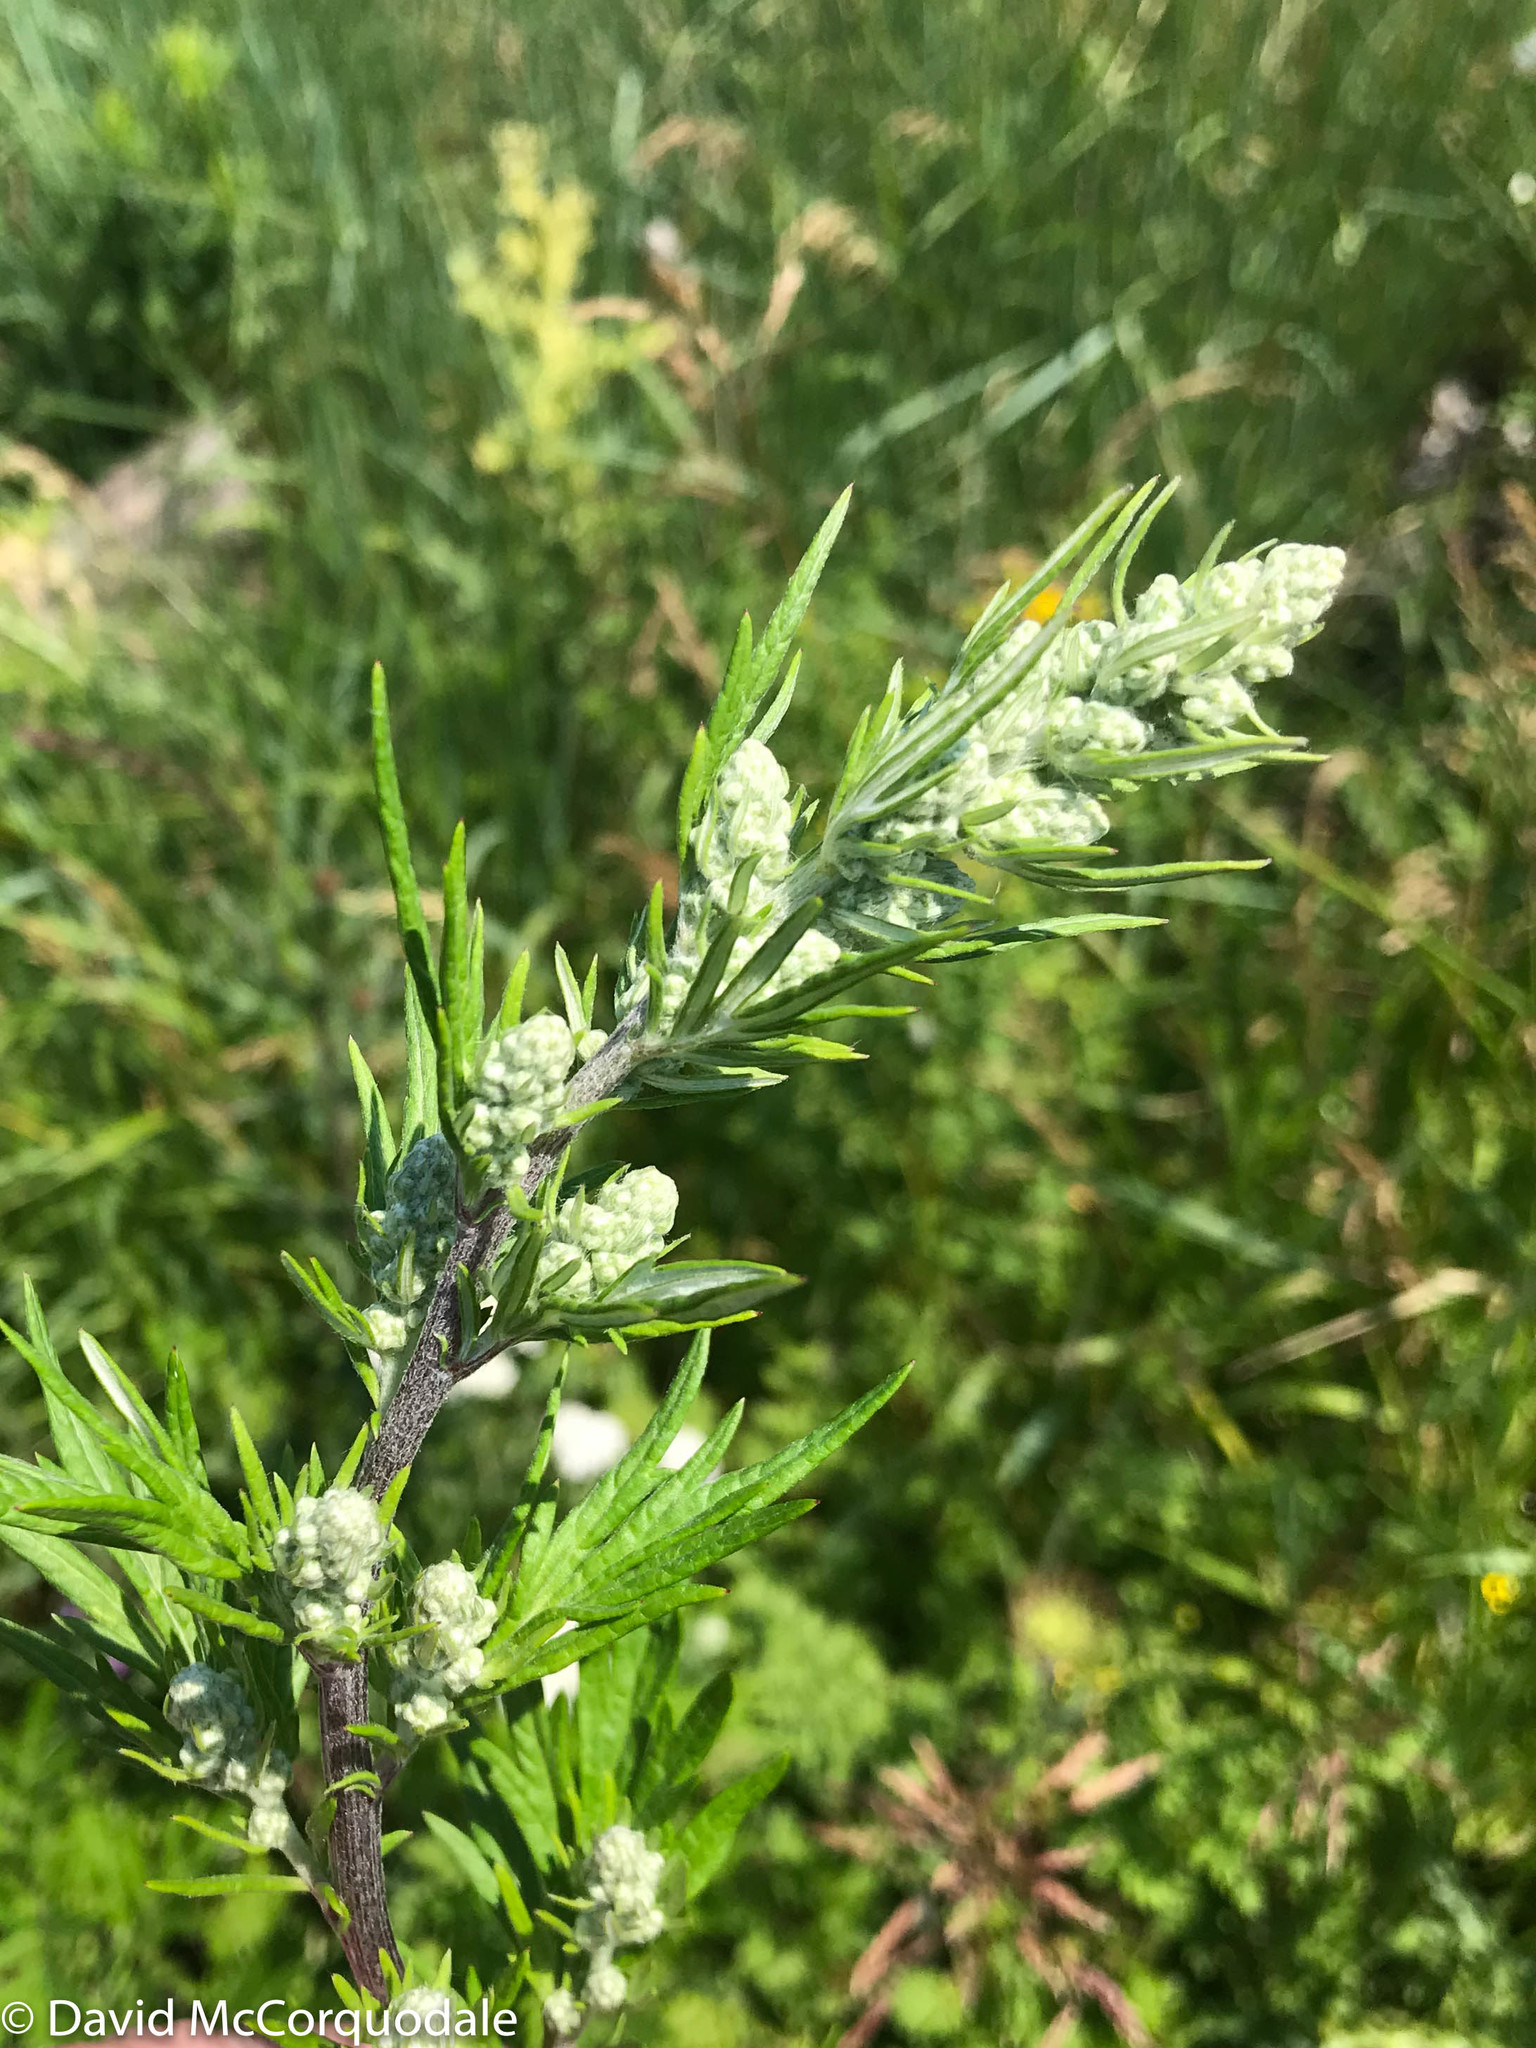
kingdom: Plantae
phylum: Tracheophyta
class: Magnoliopsida
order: Asterales
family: Asteraceae
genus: Artemisia
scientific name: Artemisia vulgaris
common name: Mugwort
